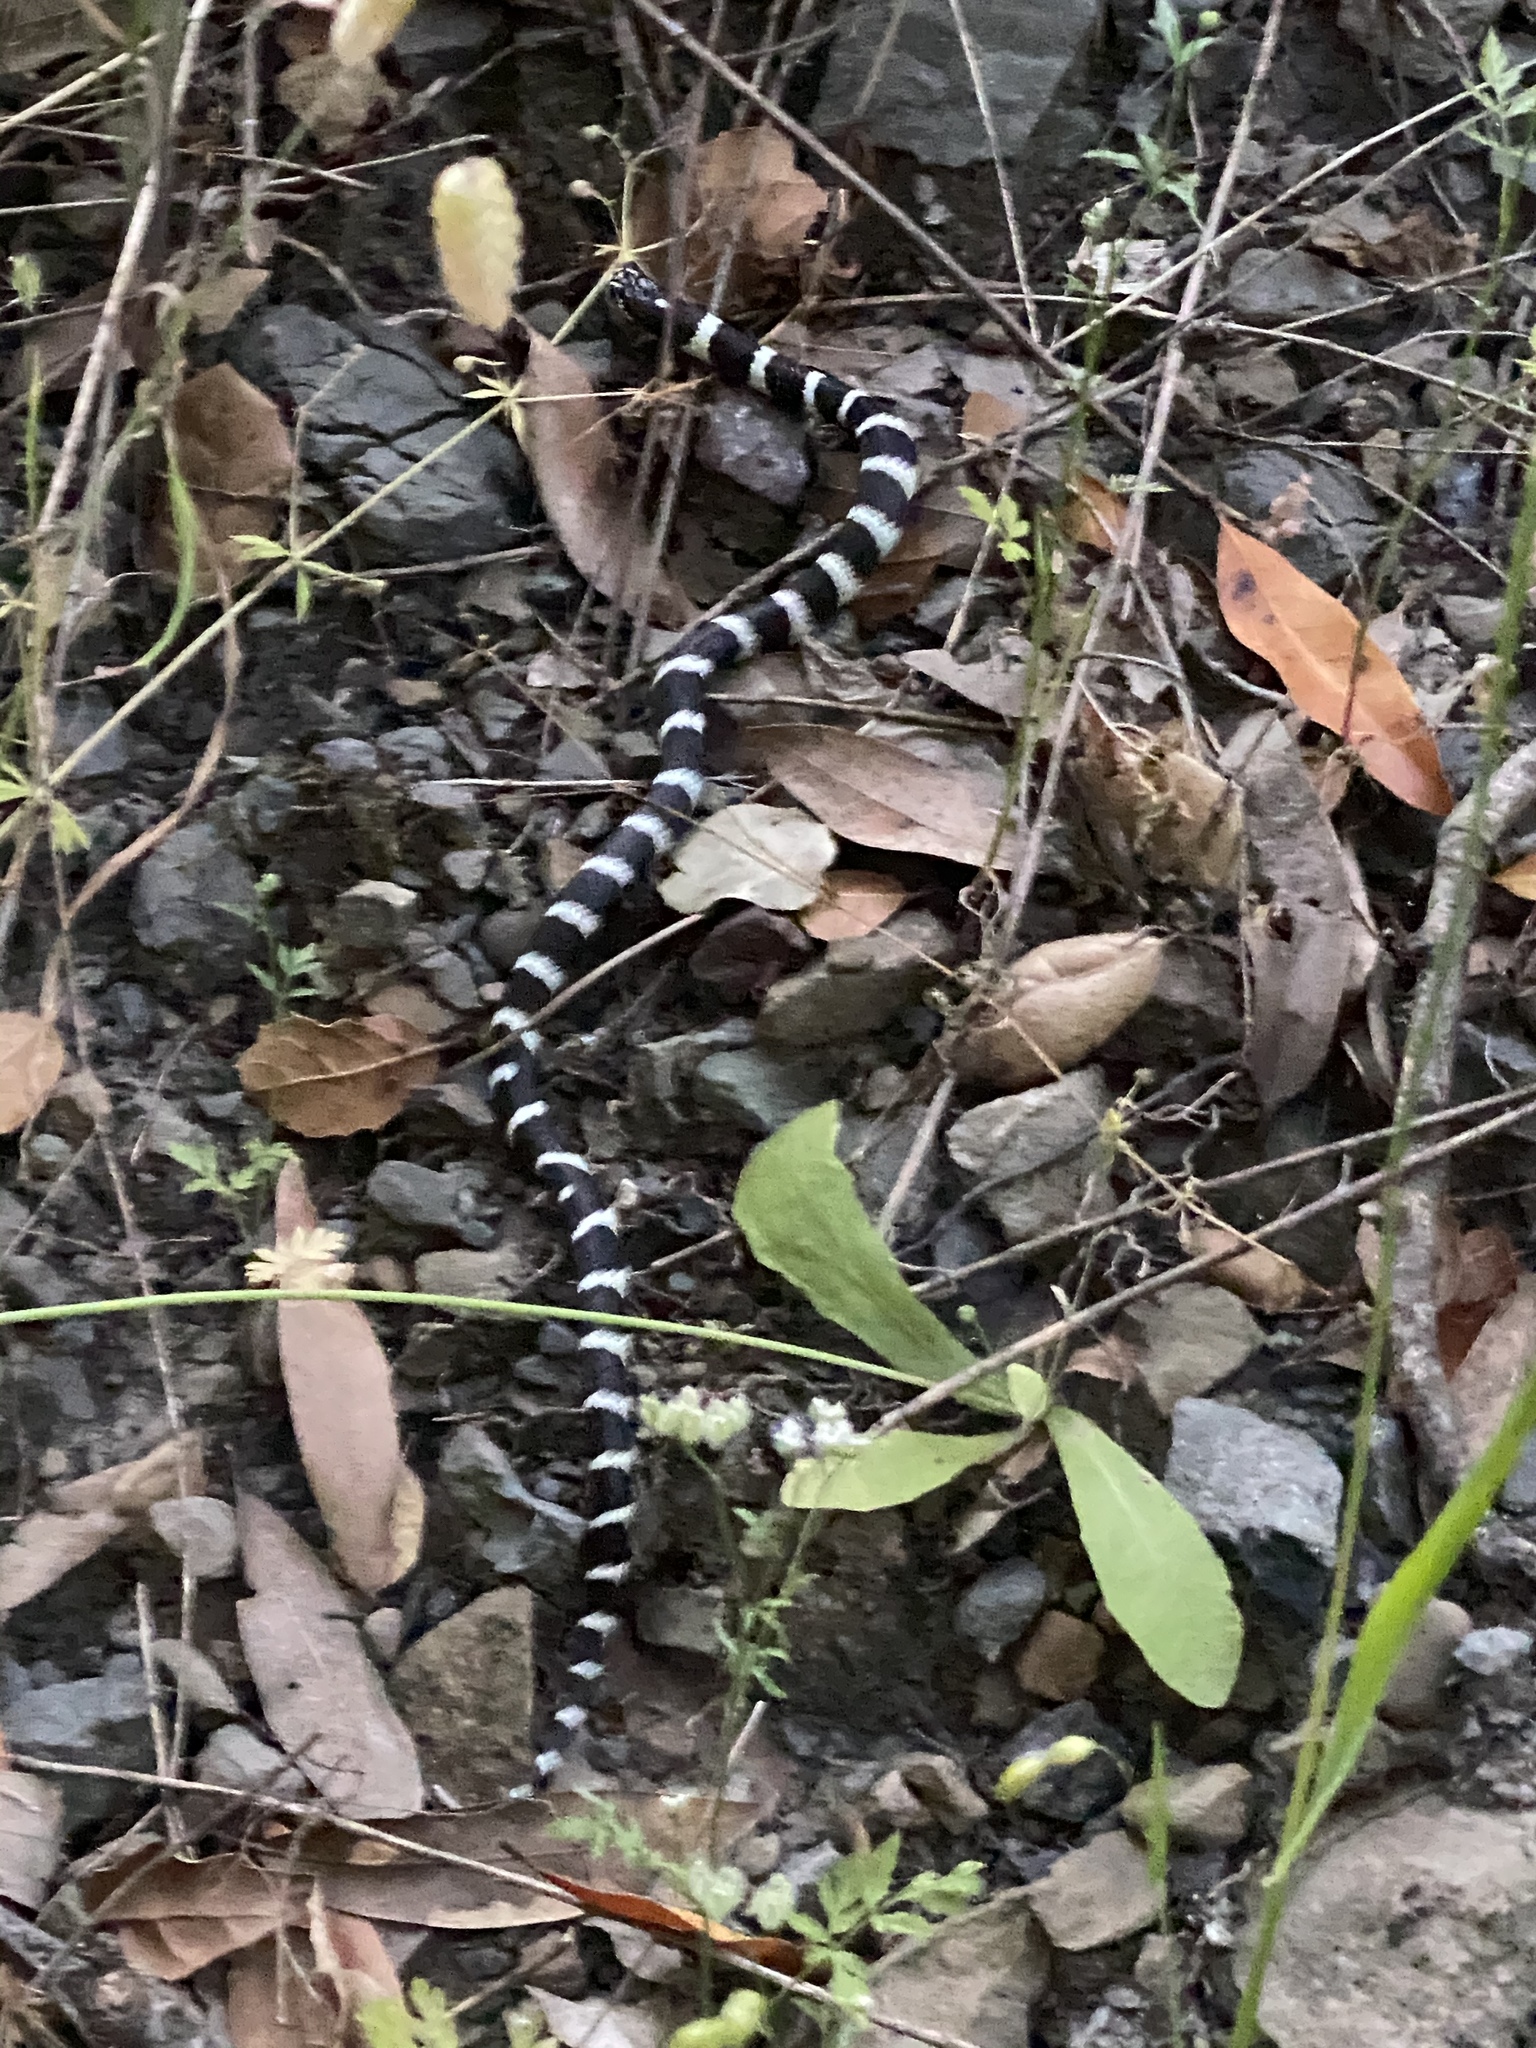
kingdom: Animalia
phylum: Chordata
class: Squamata
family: Colubridae
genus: Lampropeltis
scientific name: Lampropeltis californiae
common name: California kingsnake
